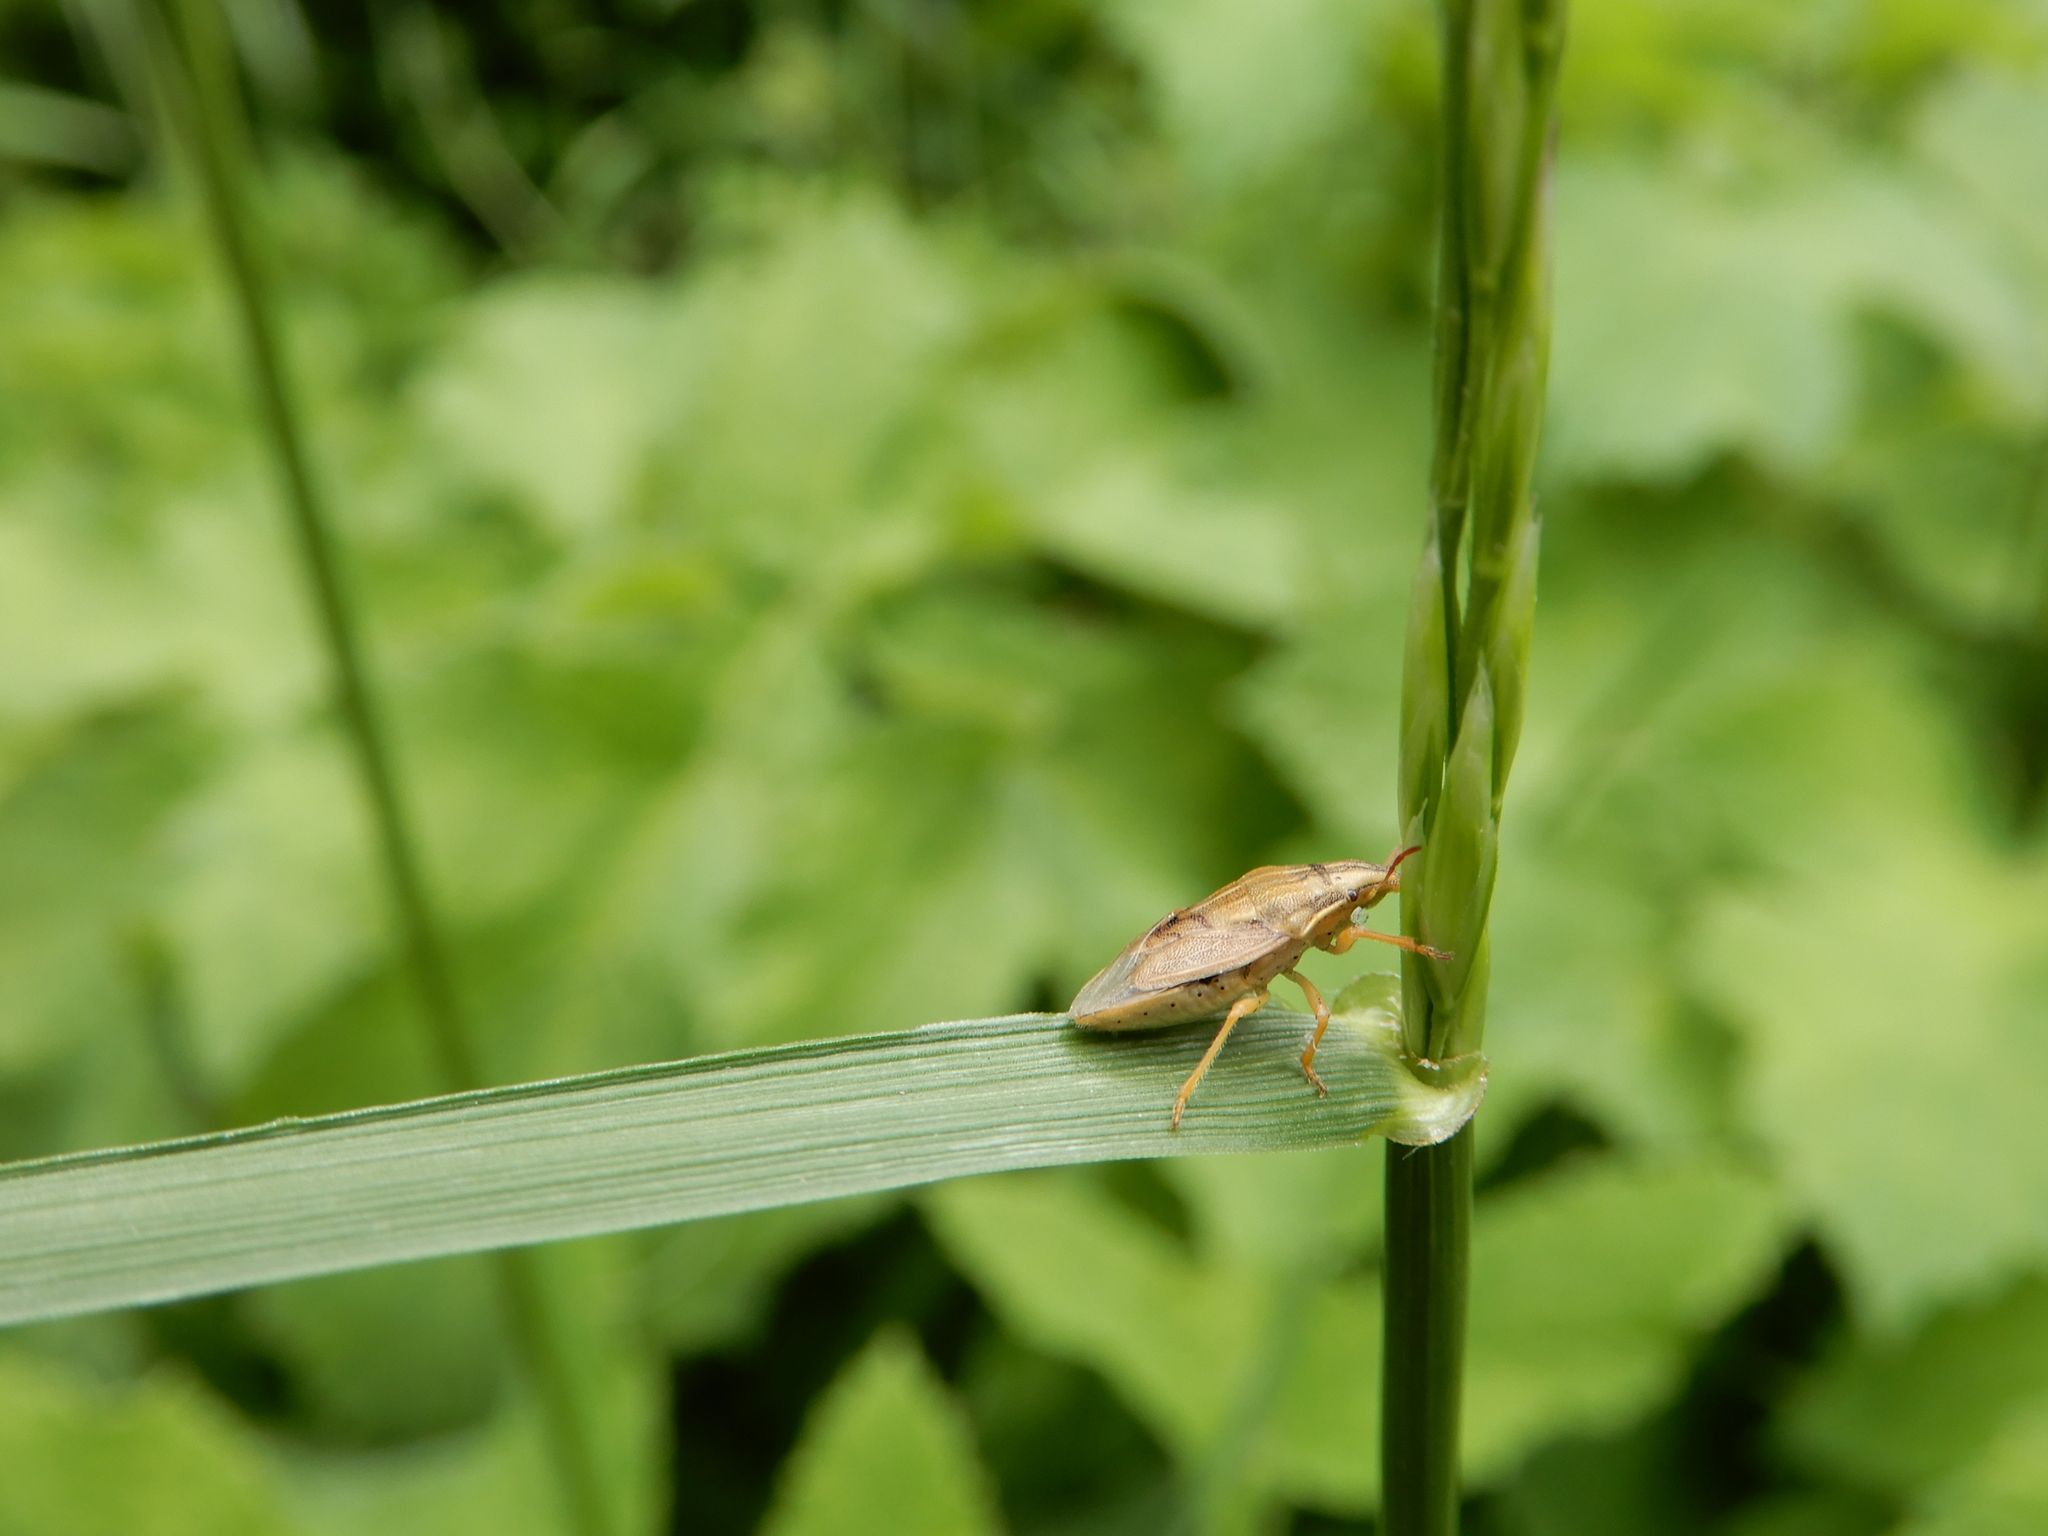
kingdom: Animalia
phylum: Arthropoda
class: Insecta
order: Hemiptera
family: Pentatomidae
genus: Aelia
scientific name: Aelia acuminata
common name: Bishop's mitre
